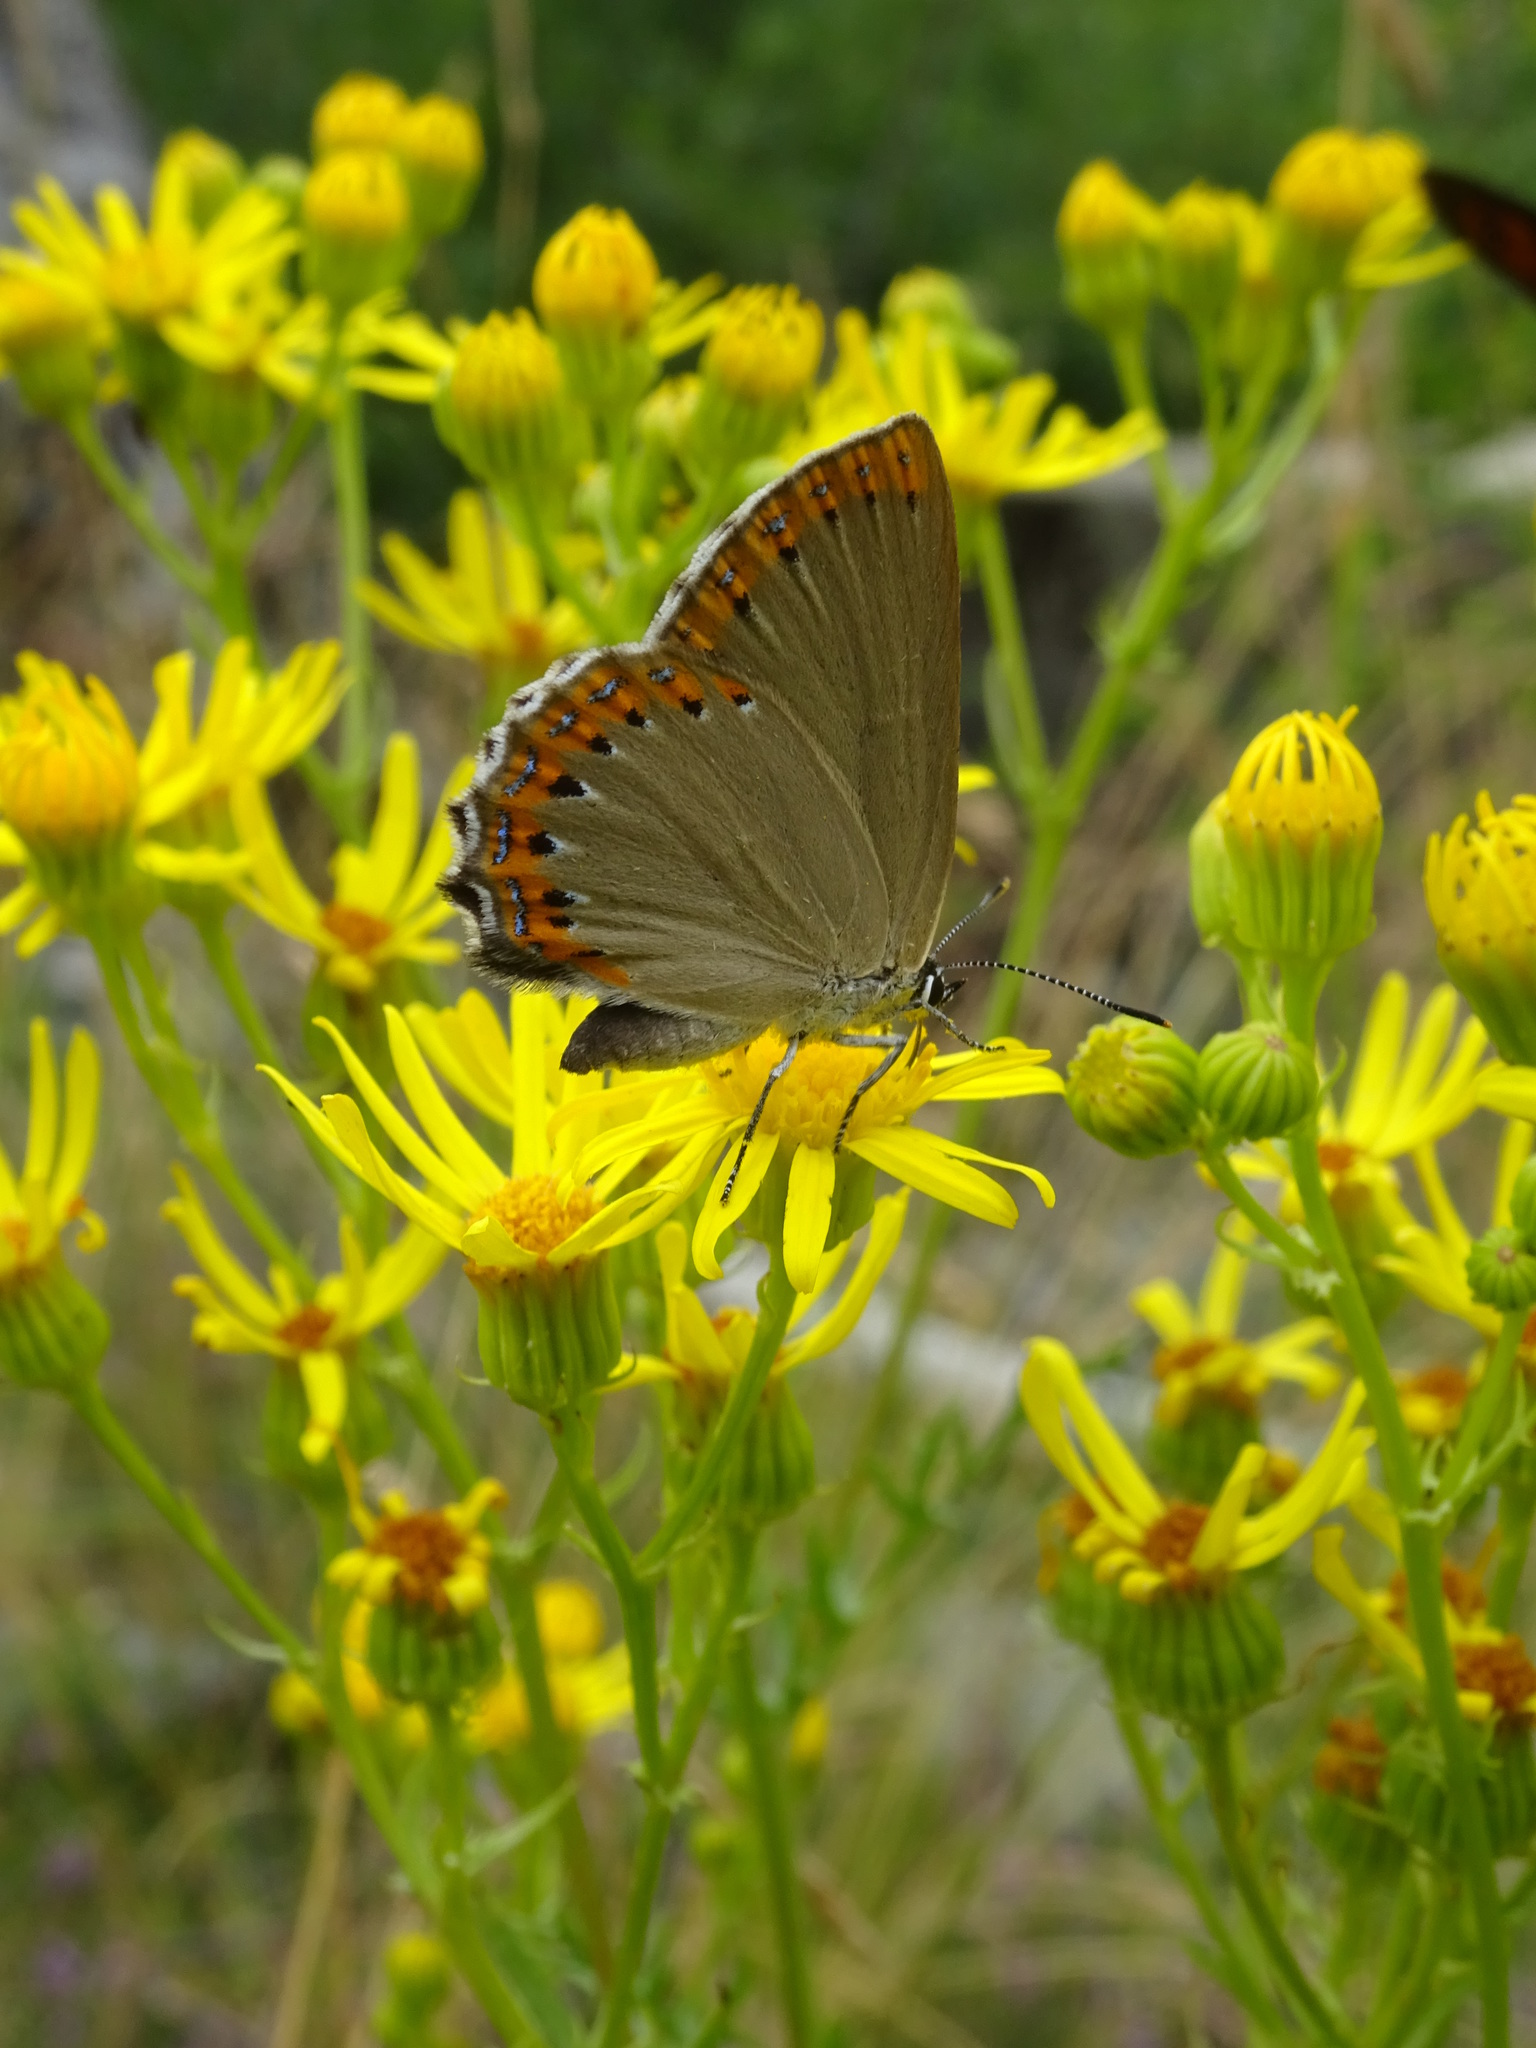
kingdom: Animalia
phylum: Arthropoda
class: Insecta
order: Lepidoptera
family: Lycaenidae
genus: Laeosopis
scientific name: Laeosopis roboris
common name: Spanish purple hairstreak
